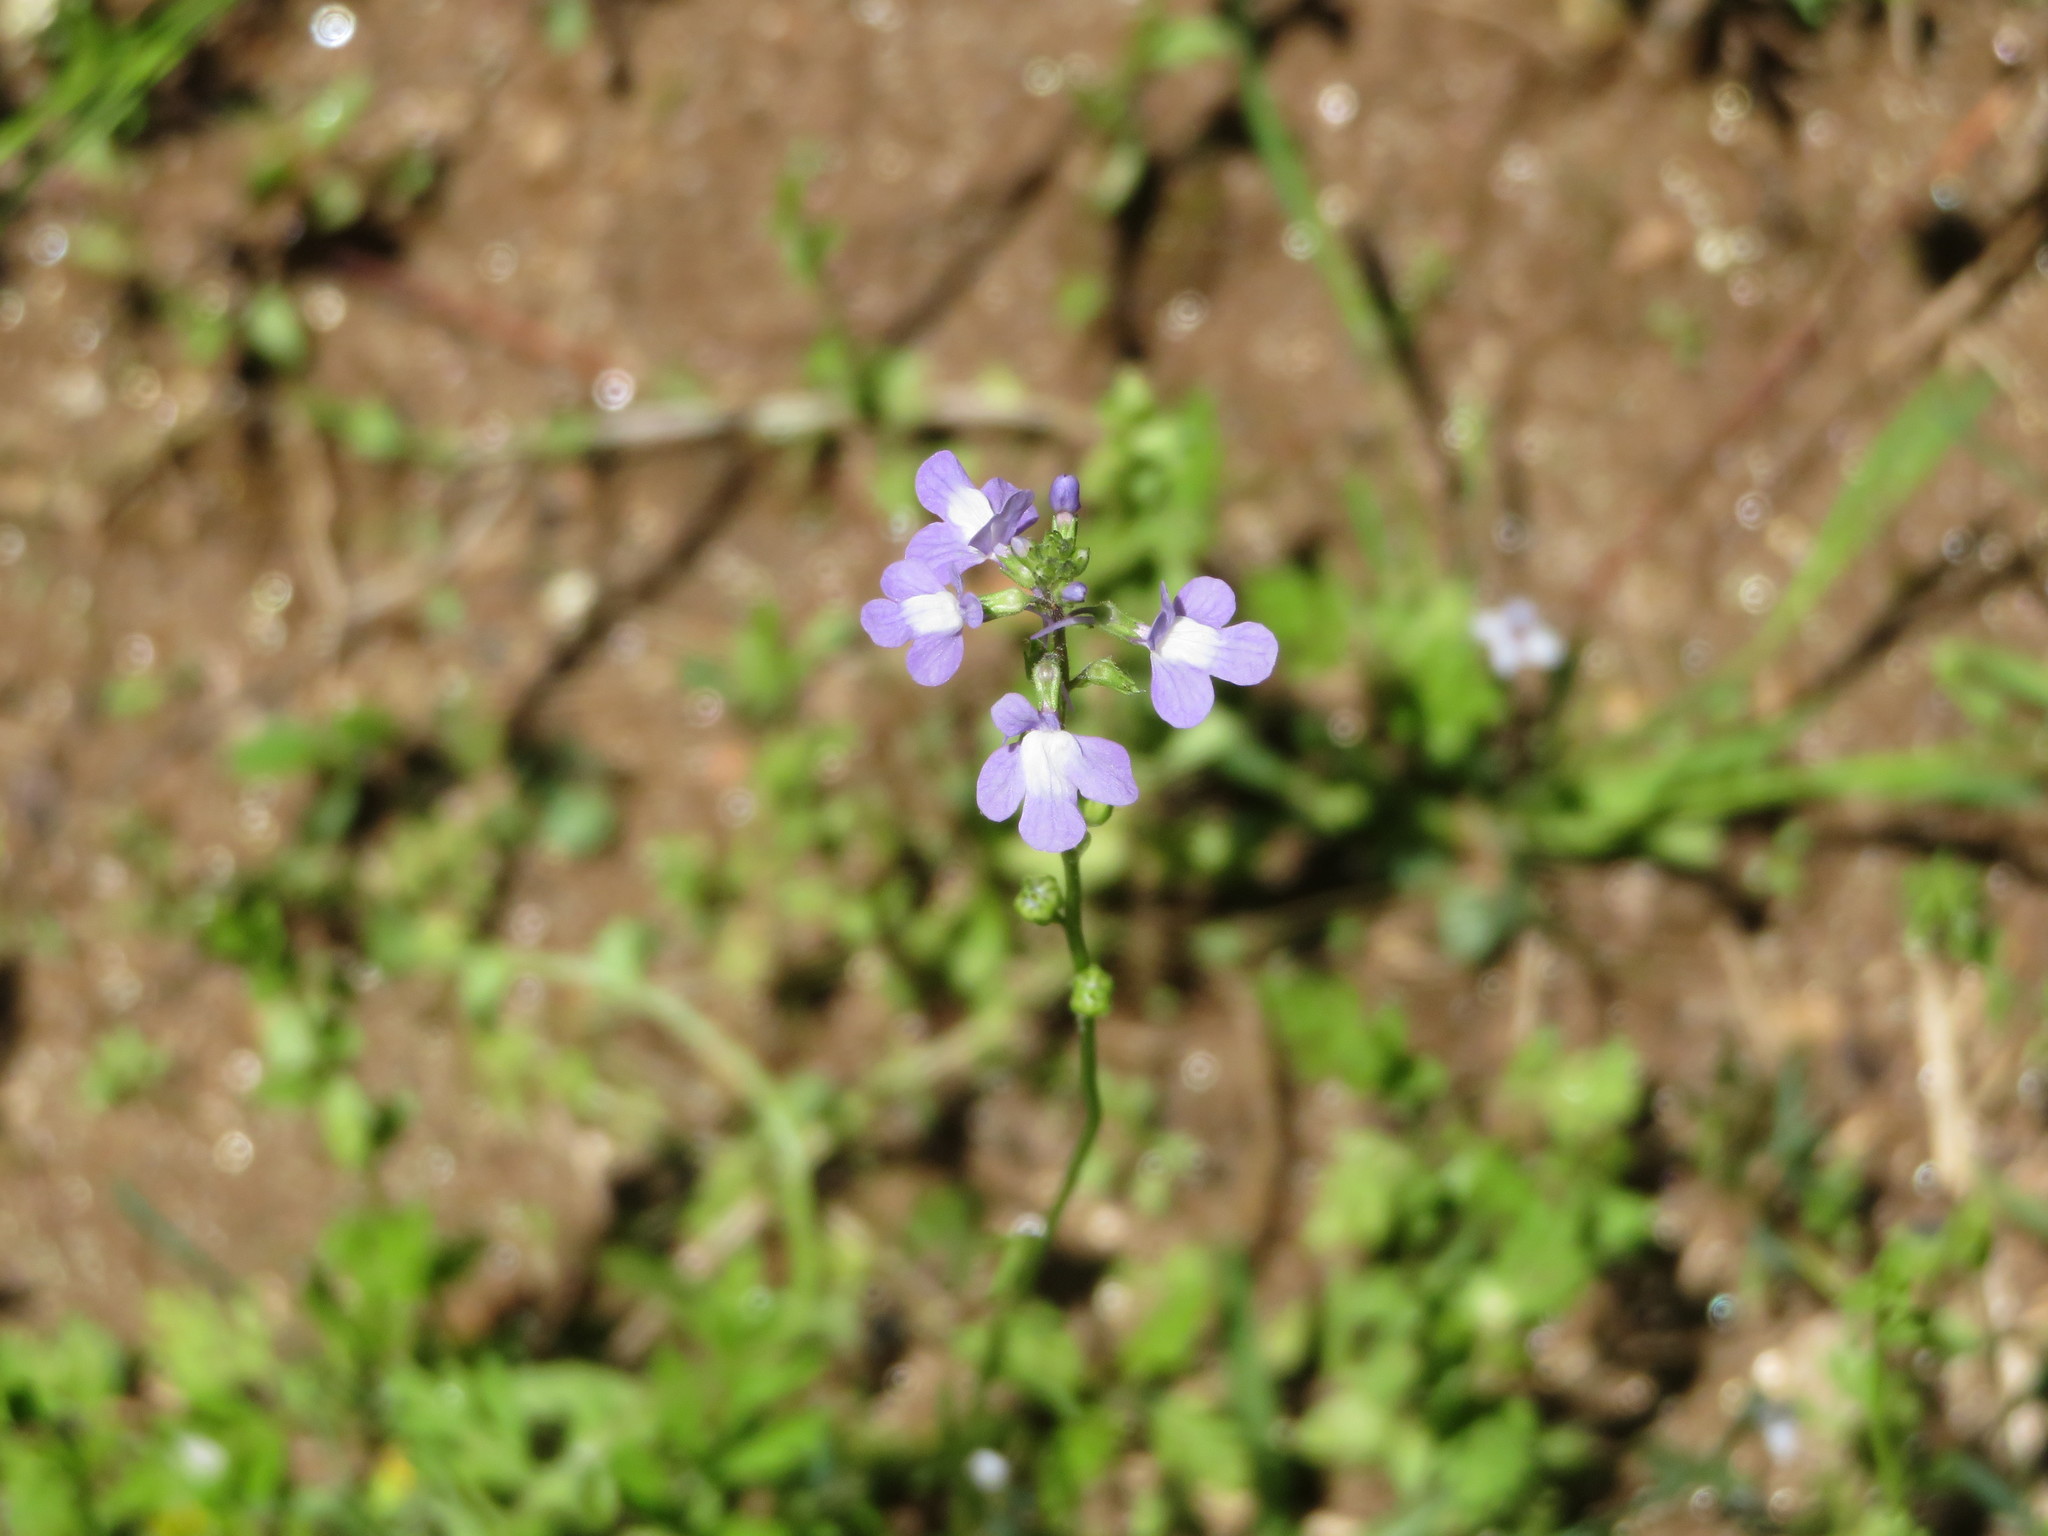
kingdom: Plantae
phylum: Tracheophyta
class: Magnoliopsida
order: Lamiales
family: Plantaginaceae
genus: Nuttallanthus
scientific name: Nuttallanthus canadensis
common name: Blue toadflax
